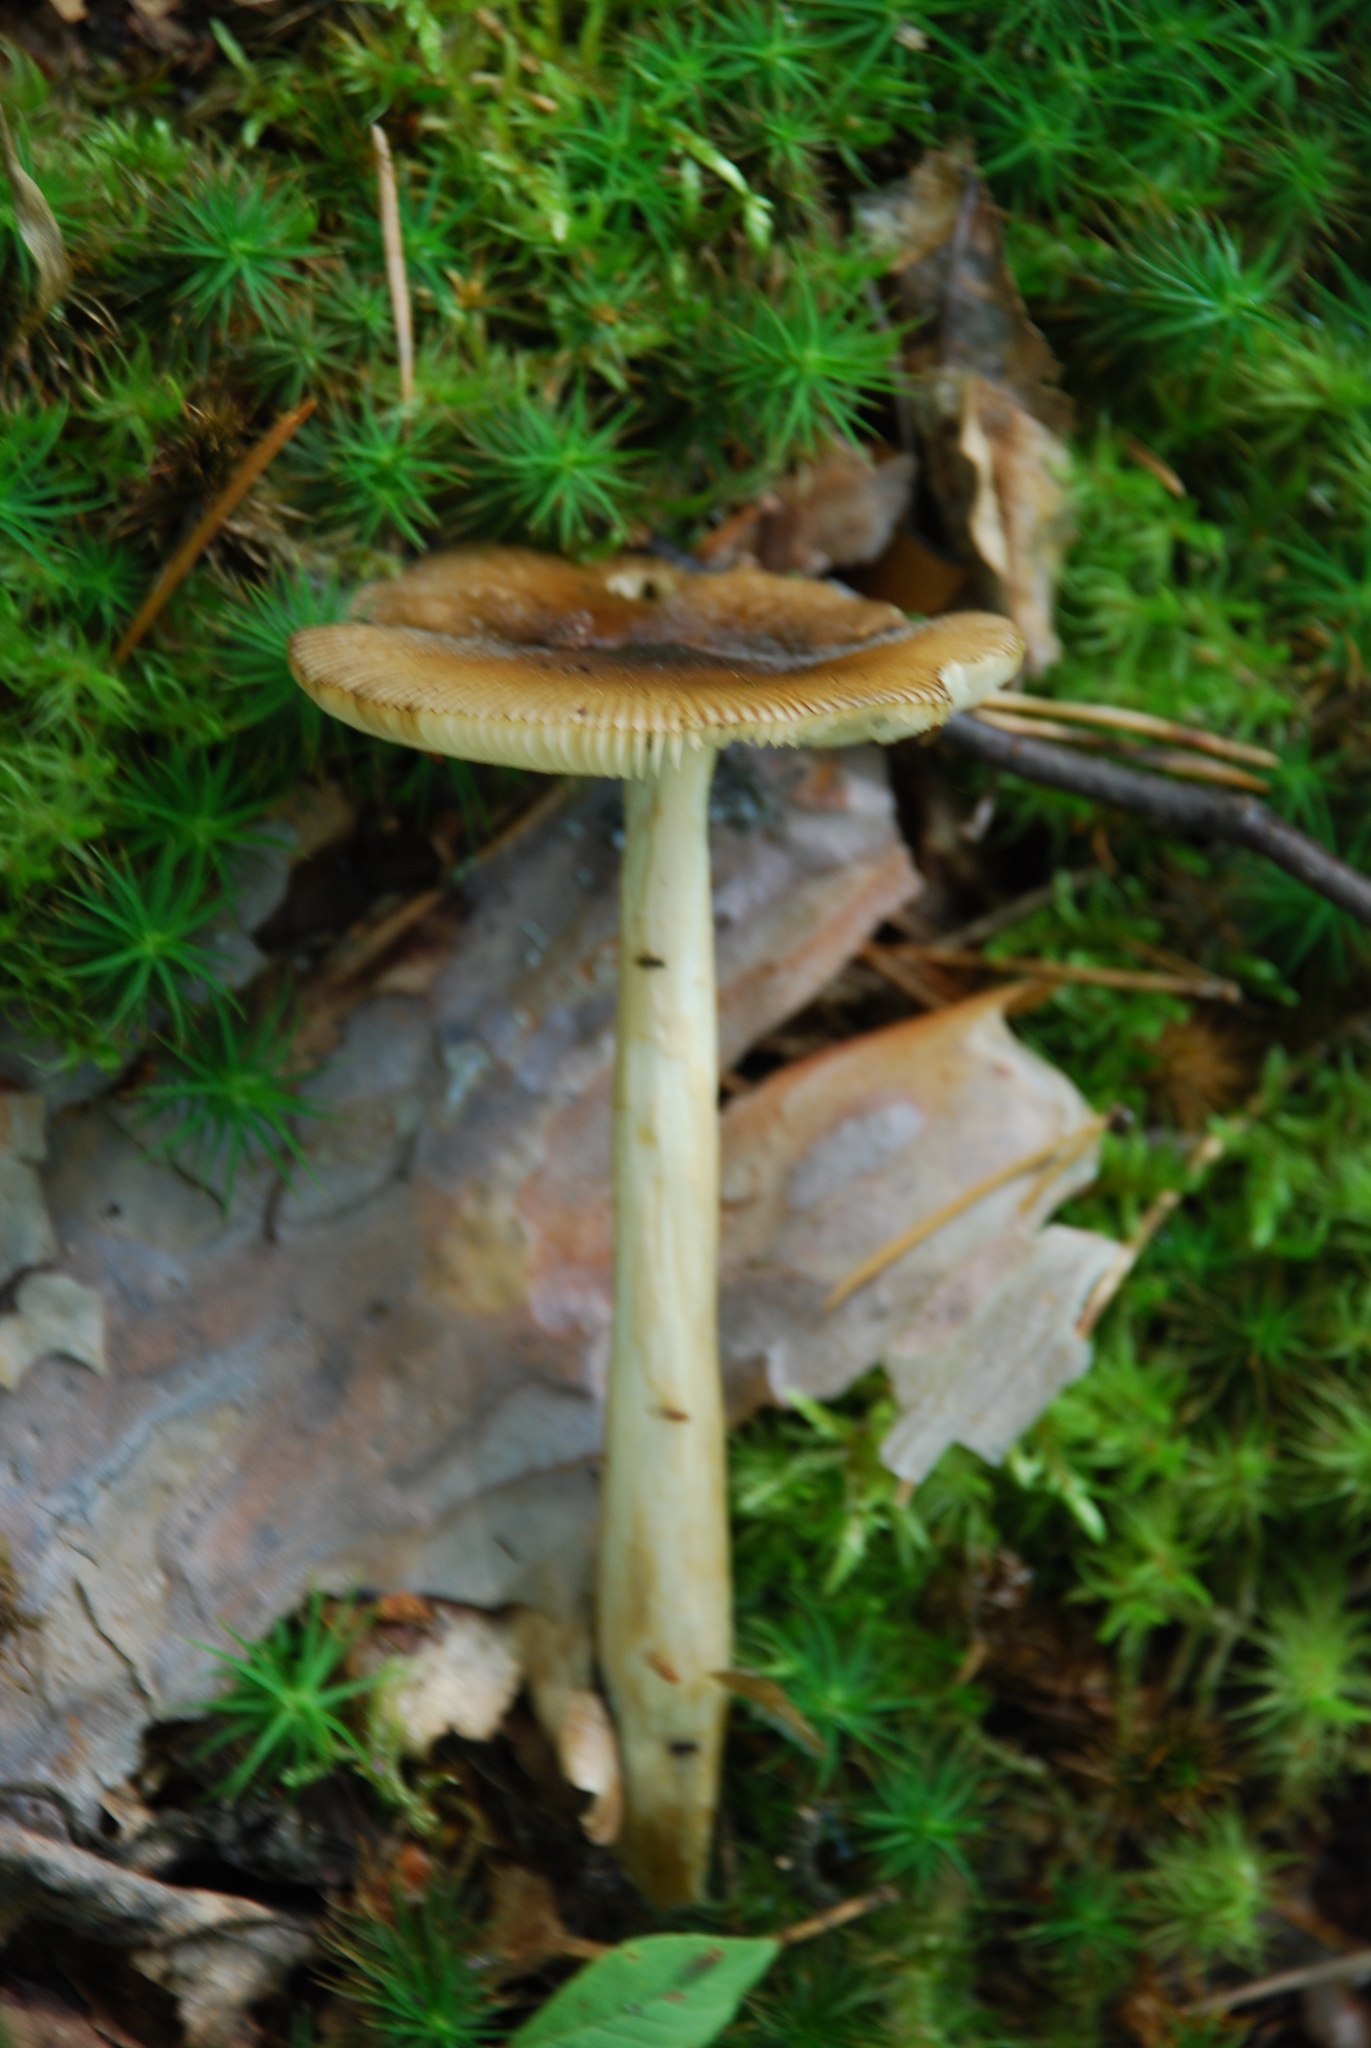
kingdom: Fungi
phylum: Basidiomycota
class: Agaricomycetes
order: Agaricales
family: Amanitaceae
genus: Amanita
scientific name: Amanita fulva
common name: Tawny grisette
